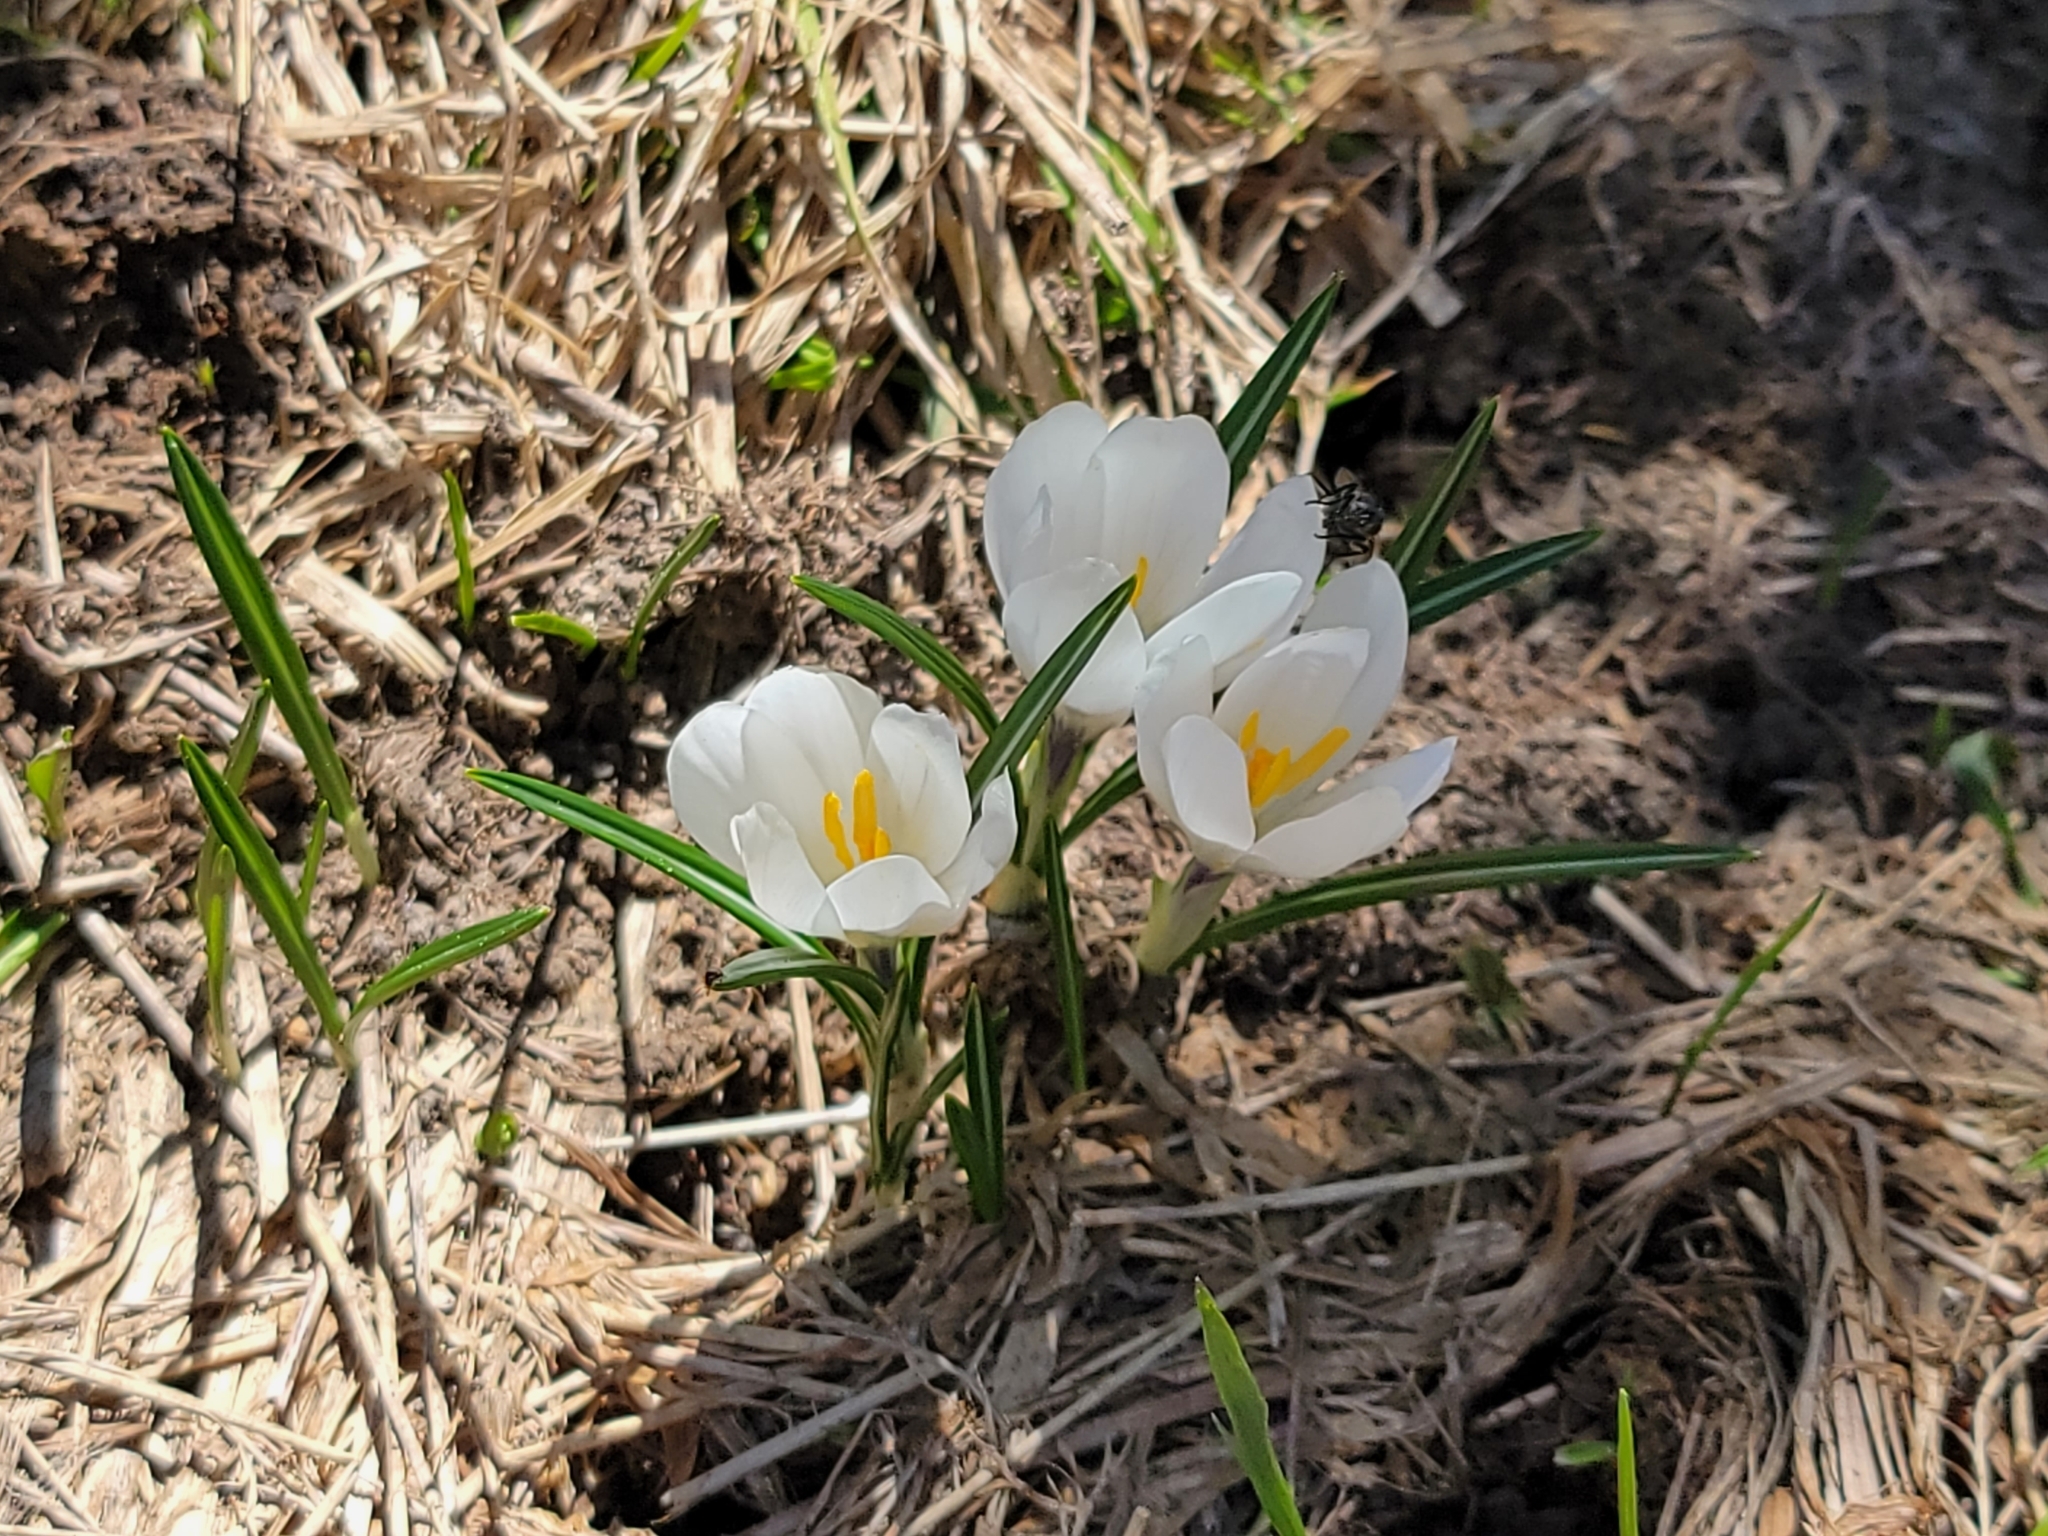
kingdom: Plantae
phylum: Tracheophyta
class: Liliopsida
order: Asparagales
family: Iridaceae
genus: Crocus
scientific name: Crocus vernus
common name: Spring crocus
